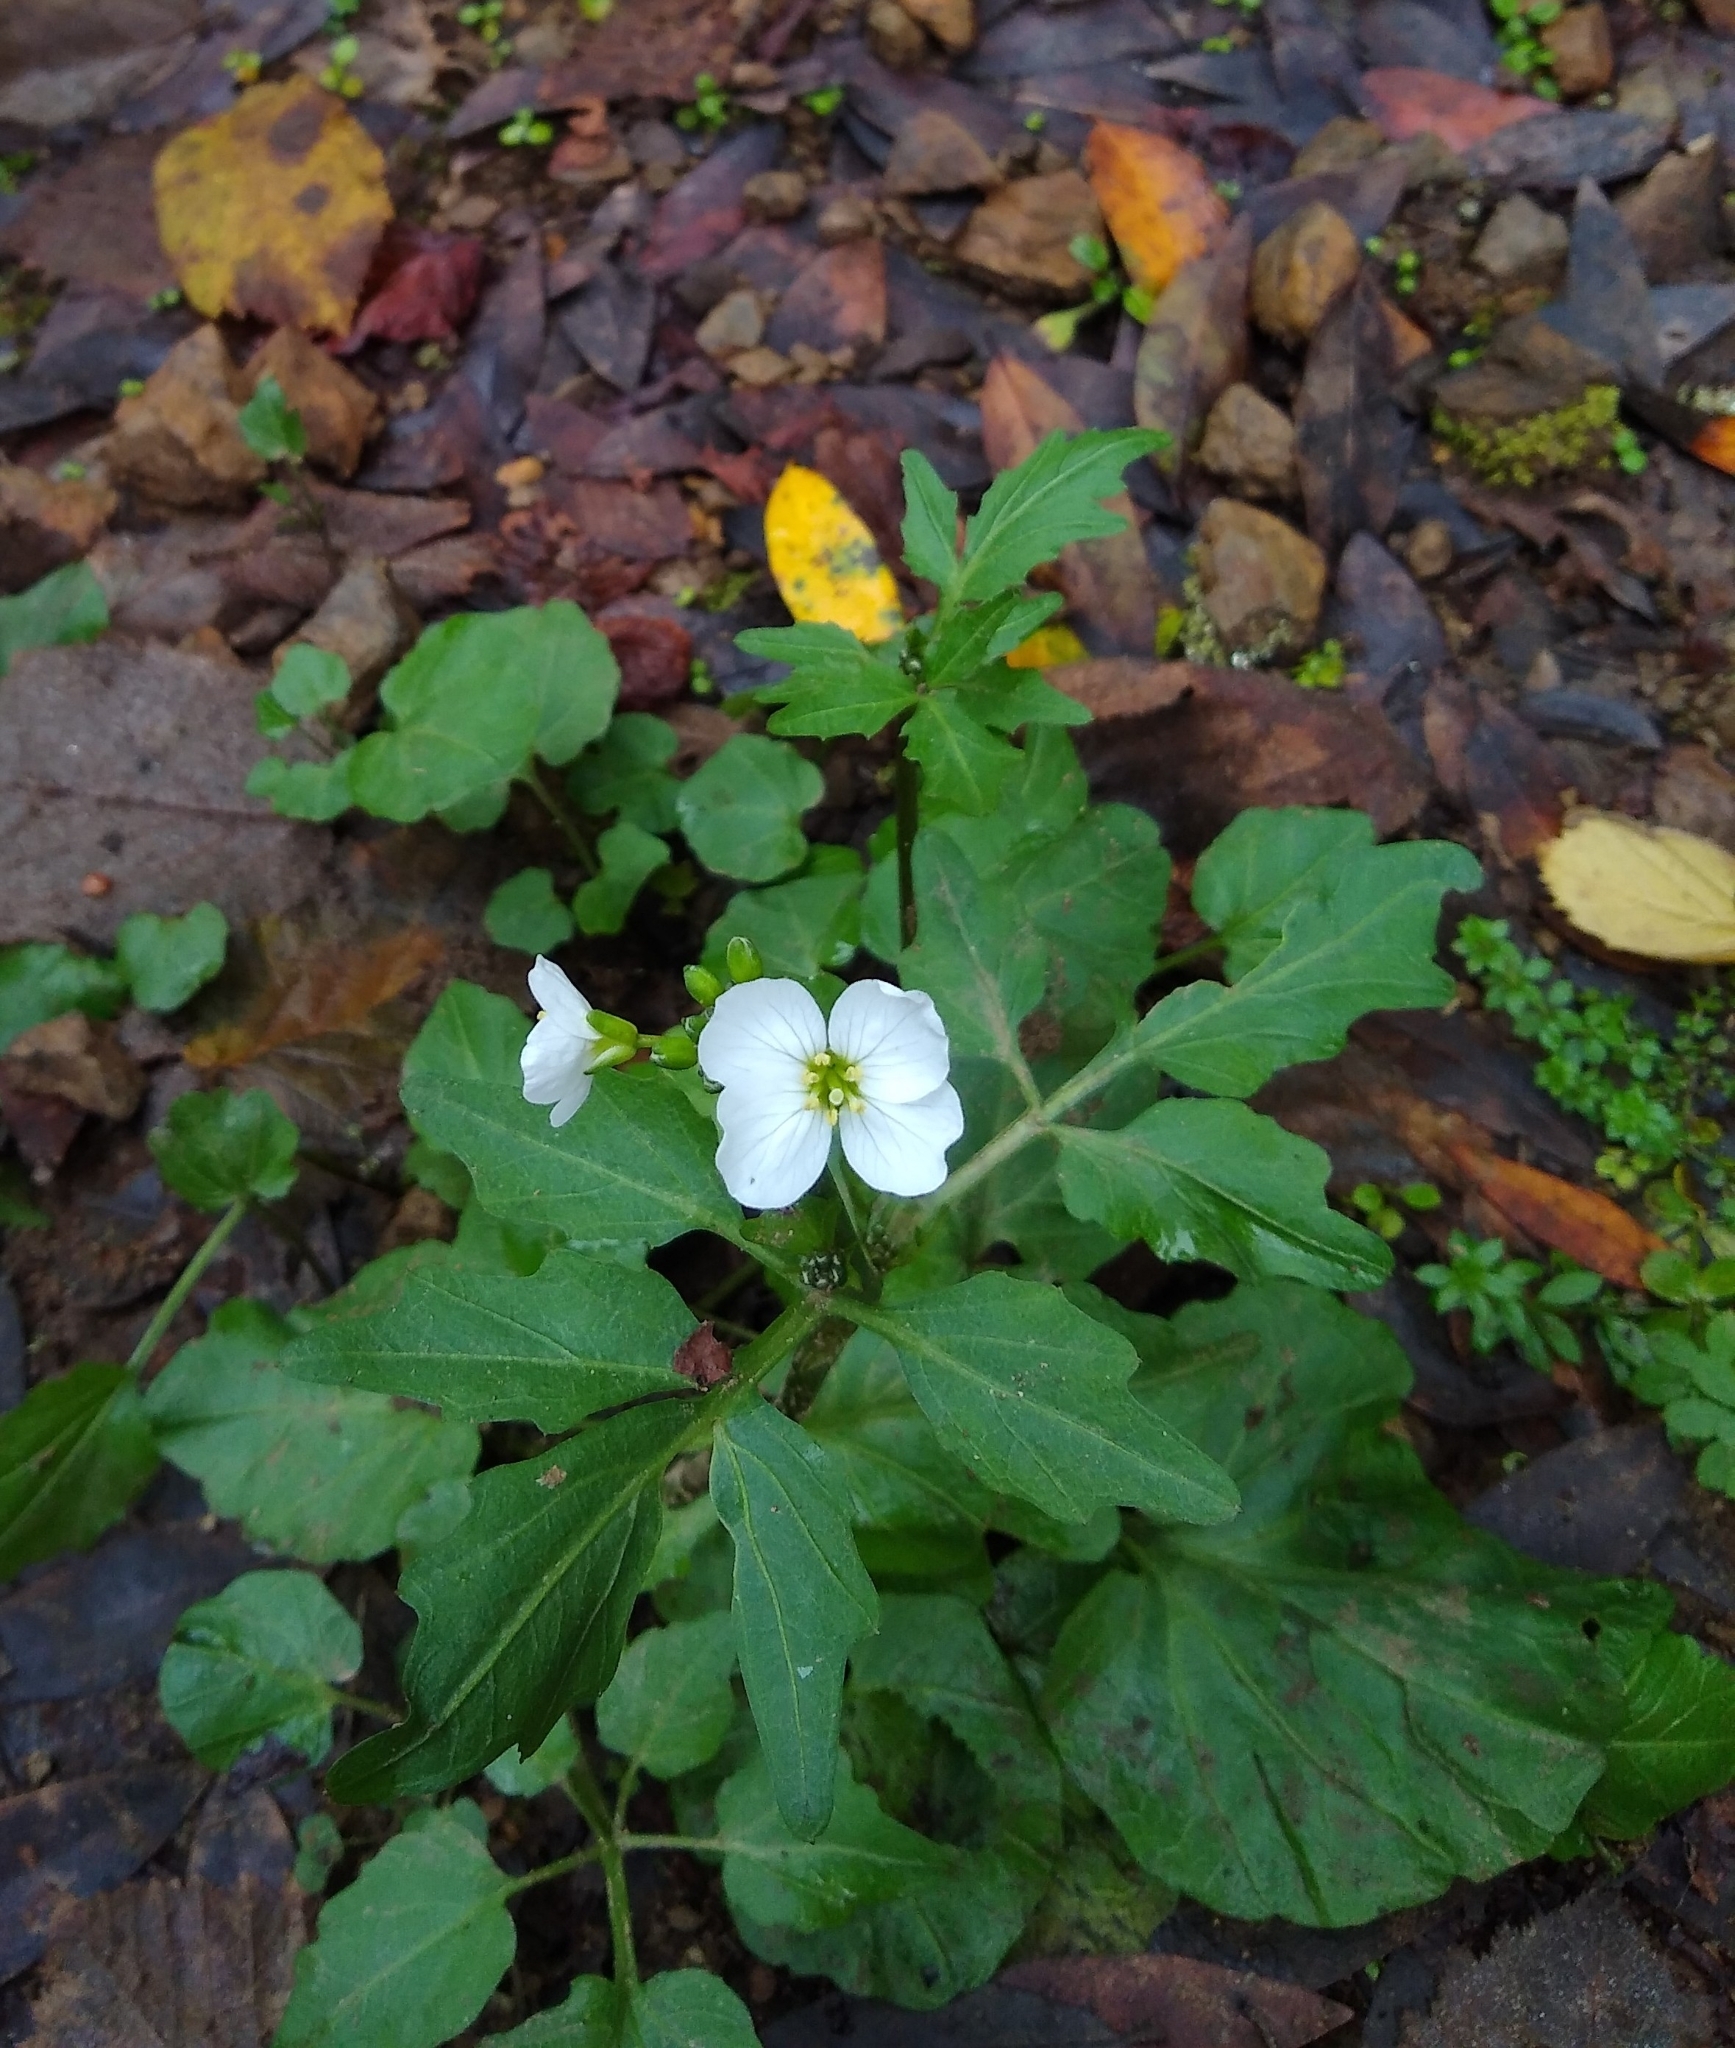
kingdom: Plantae
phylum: Tracheophyta
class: Magnoliopsida
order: Brassicales
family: Brassicaceae
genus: Cardamine
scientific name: Cardamine californica
